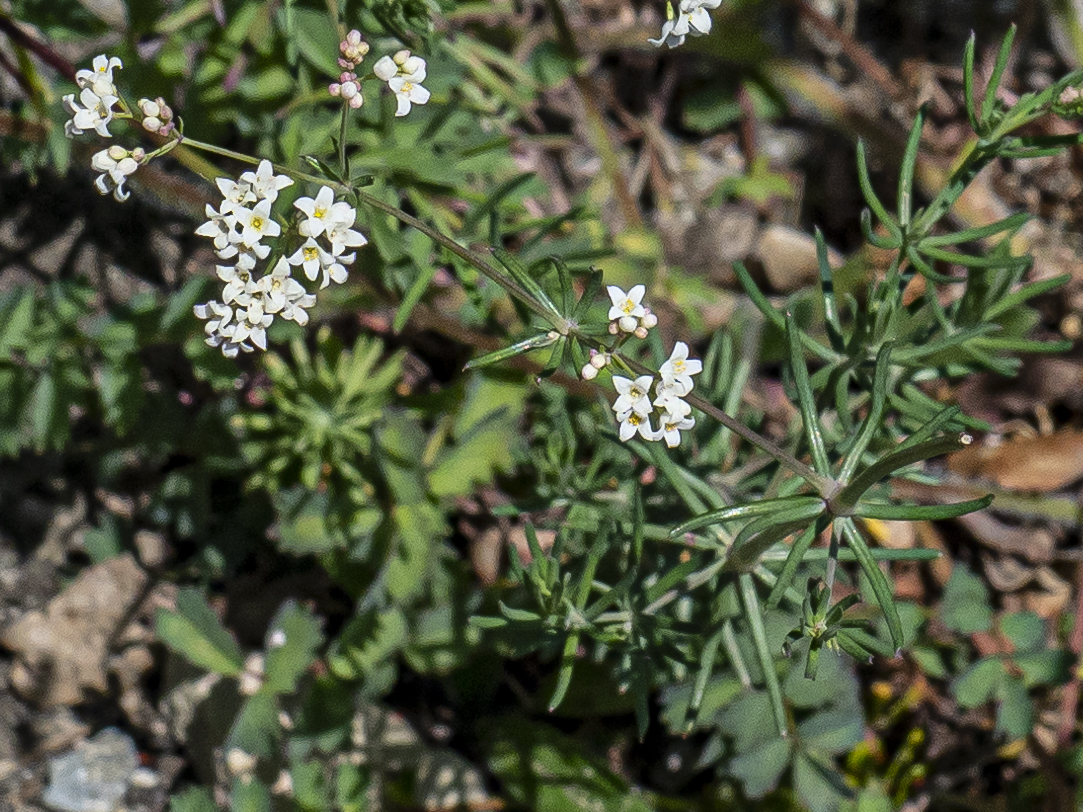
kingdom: Plantae
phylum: Tracheophyta
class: Magnoliopsida
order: Gentianales
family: Rubiaceae
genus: Galium
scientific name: Galium eruptivum
